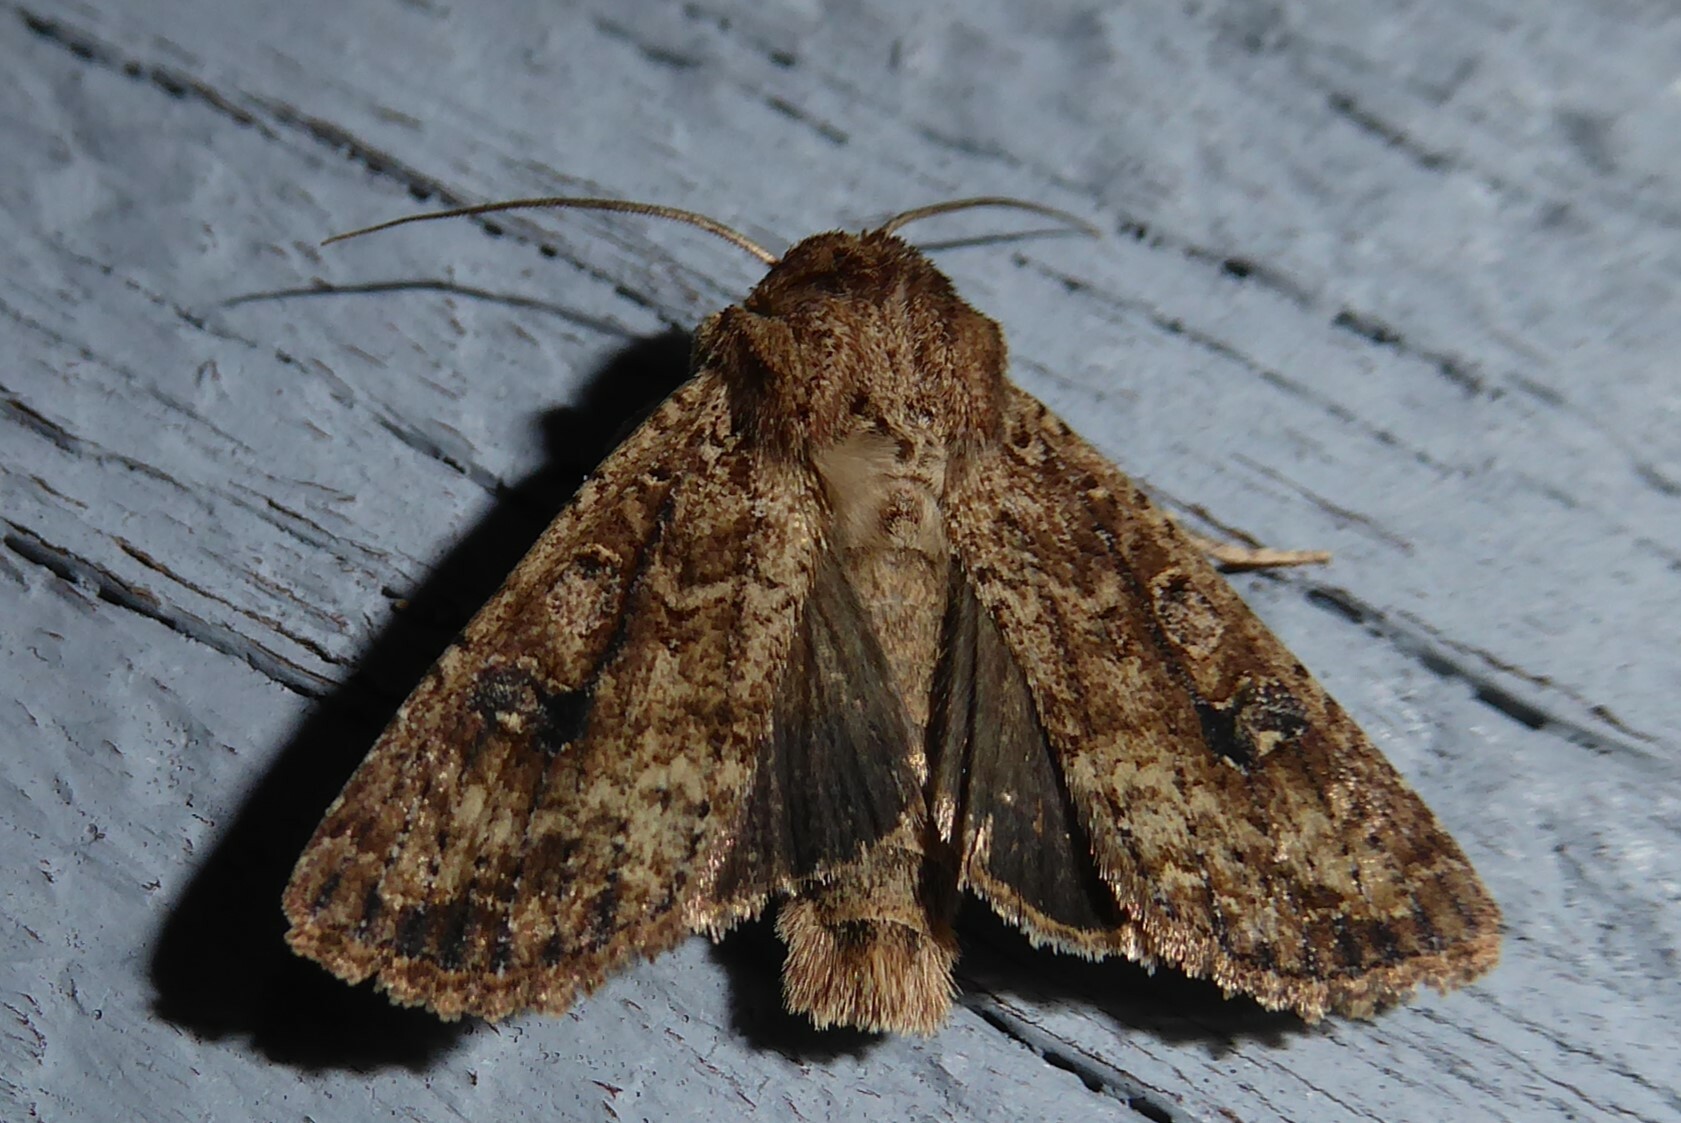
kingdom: Animalia
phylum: Arthropoda
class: Insecta
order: Lepidoptera
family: Noctuidae
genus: Ichneutica
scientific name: Ichneutica morosa
